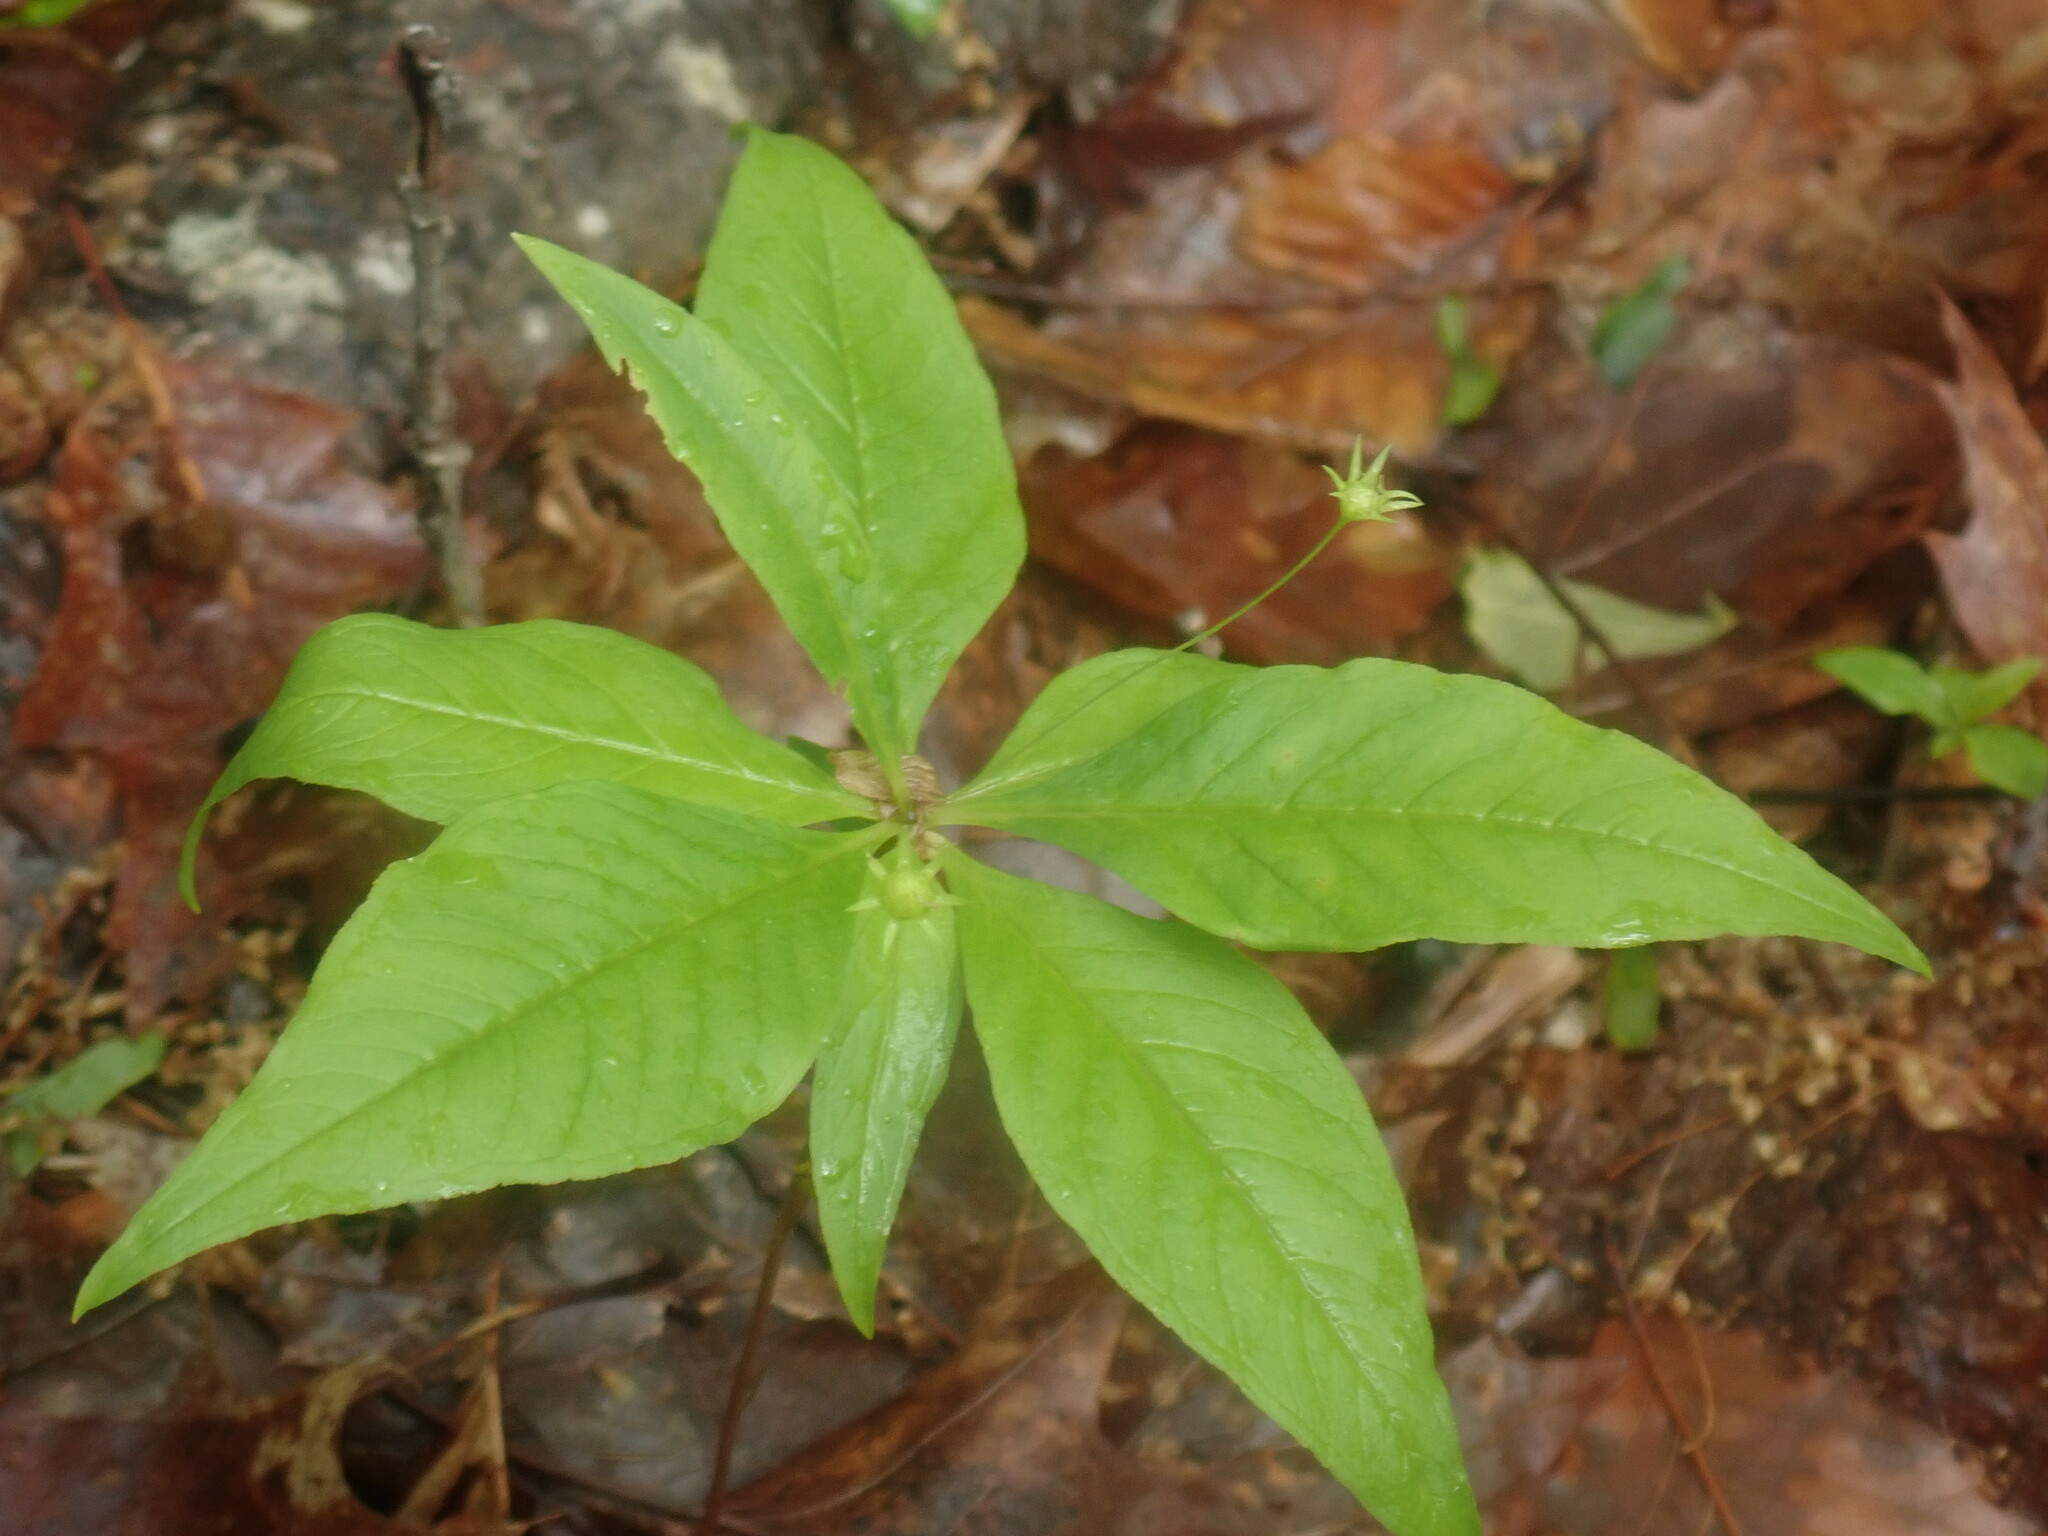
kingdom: Plantae
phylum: Tracheophyta
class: Magnoliopsida
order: Ericales
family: Primulaceae
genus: Lysimachia
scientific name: Lysimachia borealis
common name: American starflower
